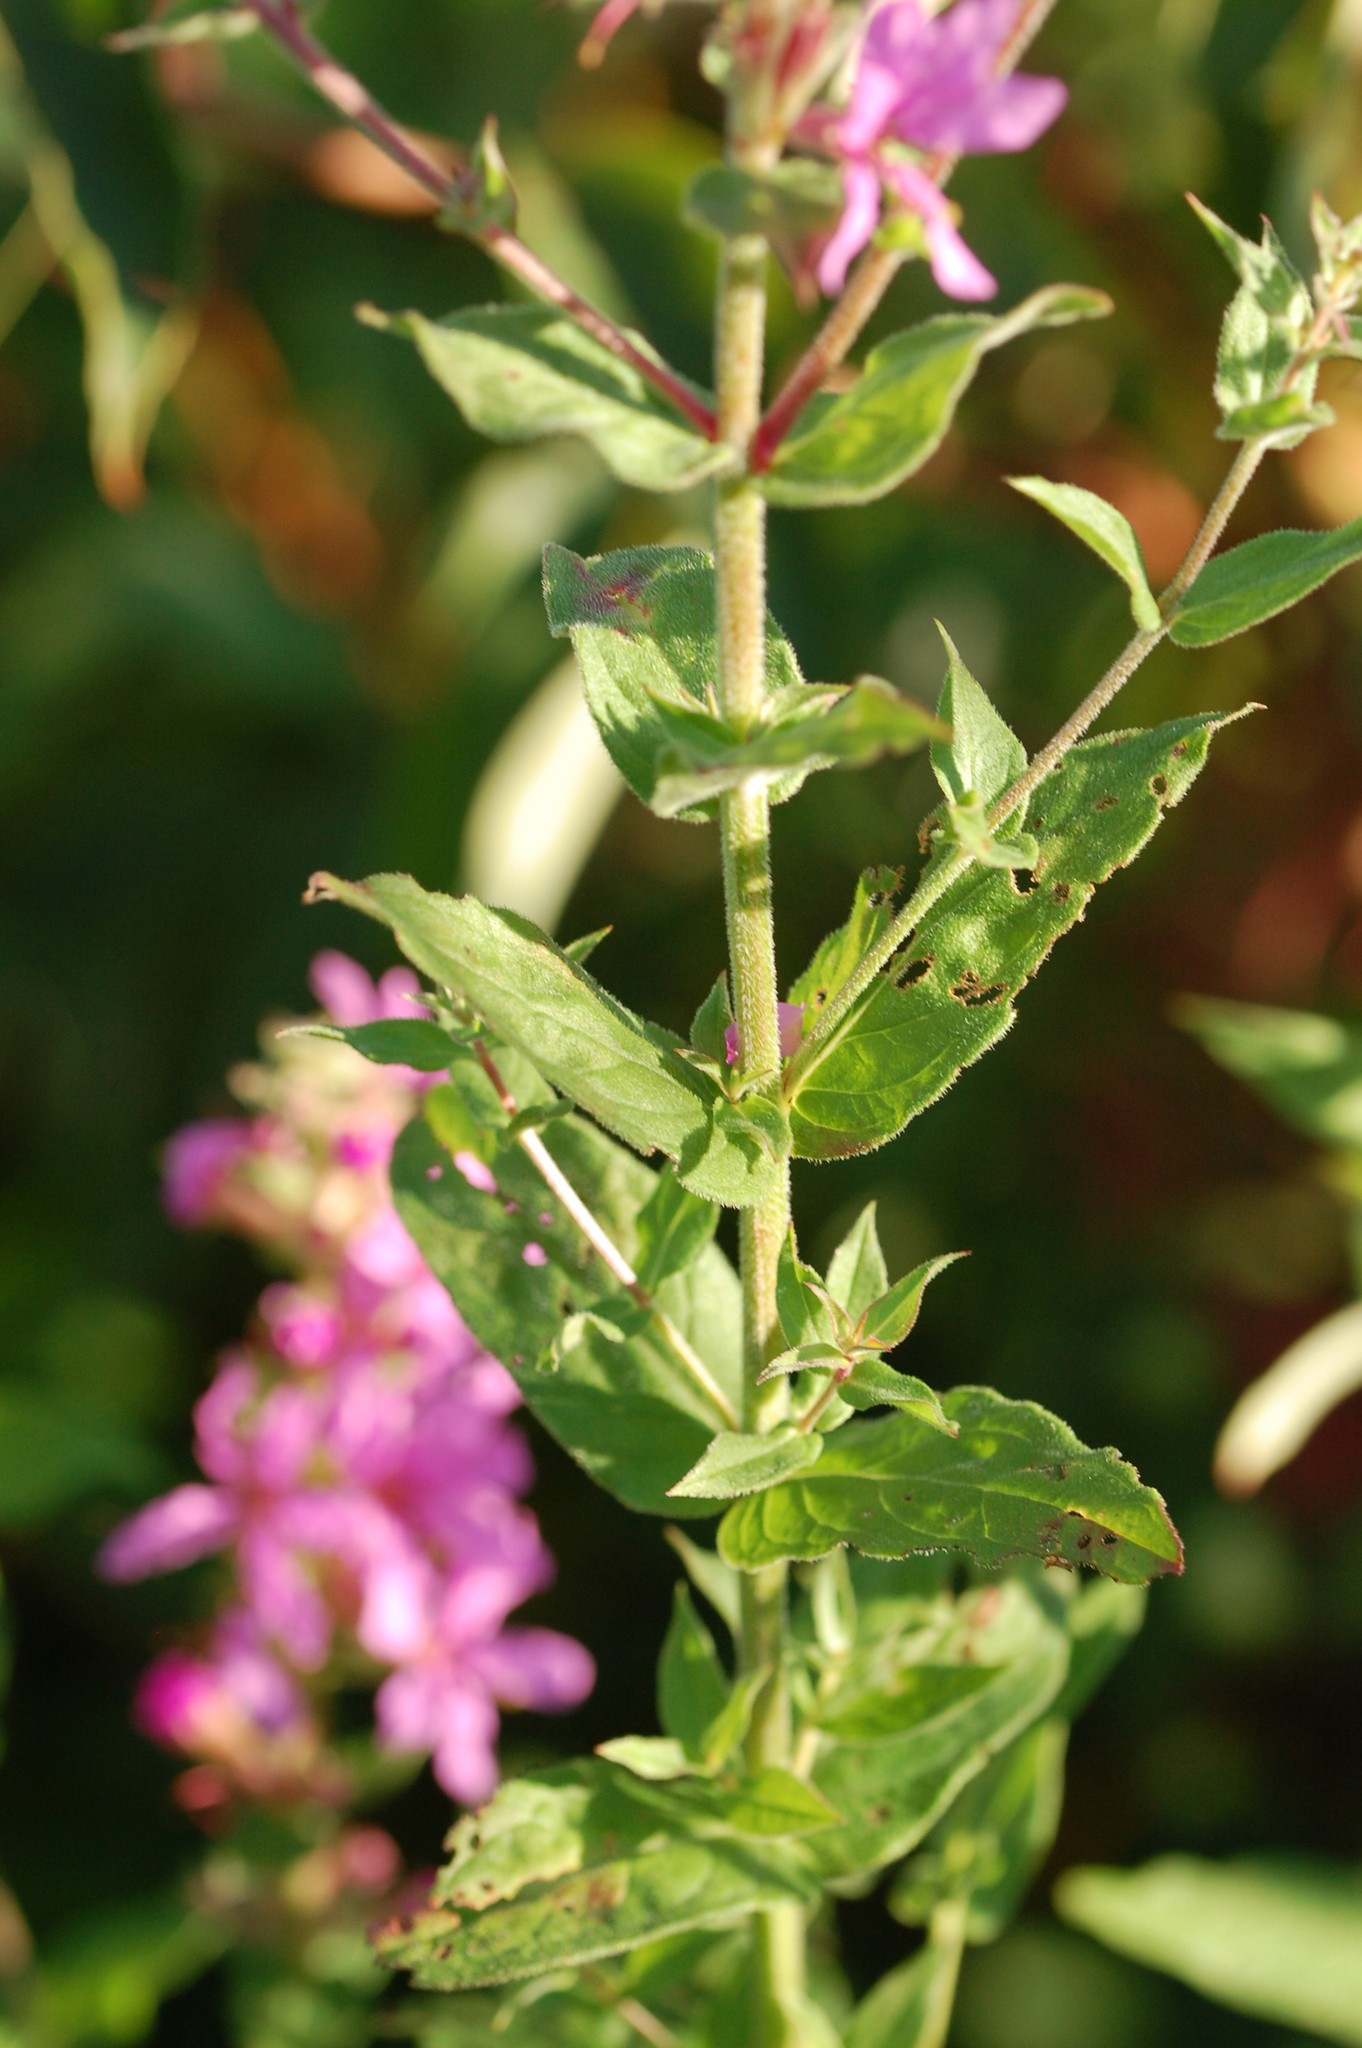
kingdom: Plantae
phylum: Tracheophyta
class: Magnoliopsida
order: Myrtales
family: Lythraceae
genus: Lythrum
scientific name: Lythrum salicaria
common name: Purple loosestrife
